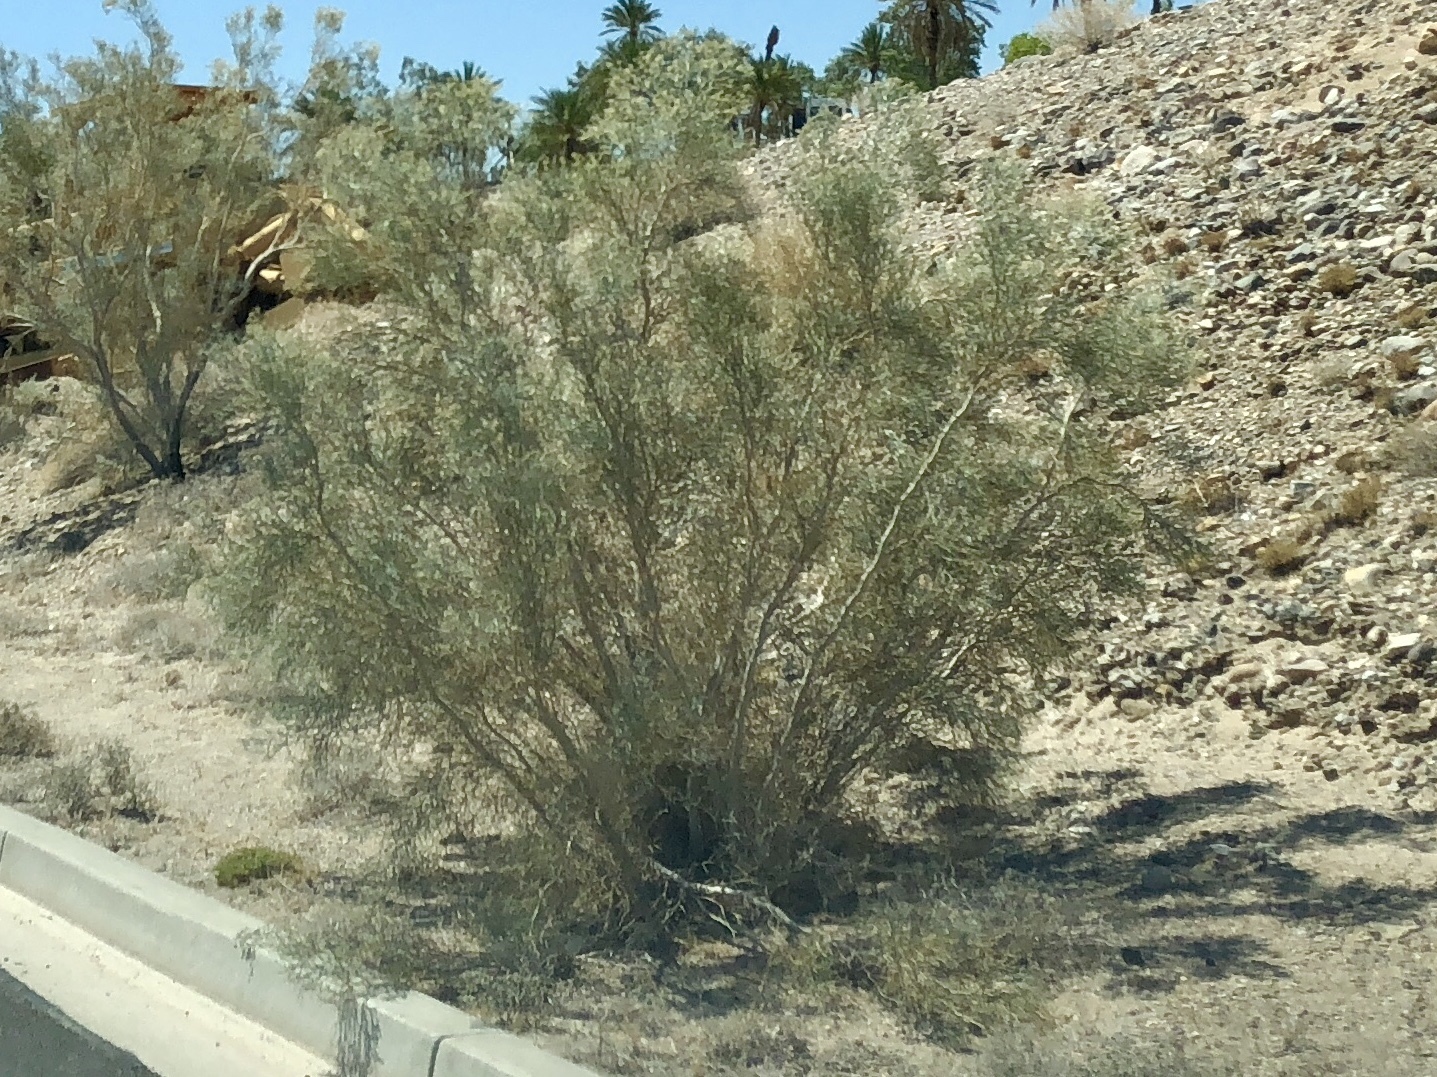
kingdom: Plantae
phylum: Tracheophyta
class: Magnoliopsida
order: Fabales
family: Fabaceae
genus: Psorothamnus
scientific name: Psorothamnus spinosus
